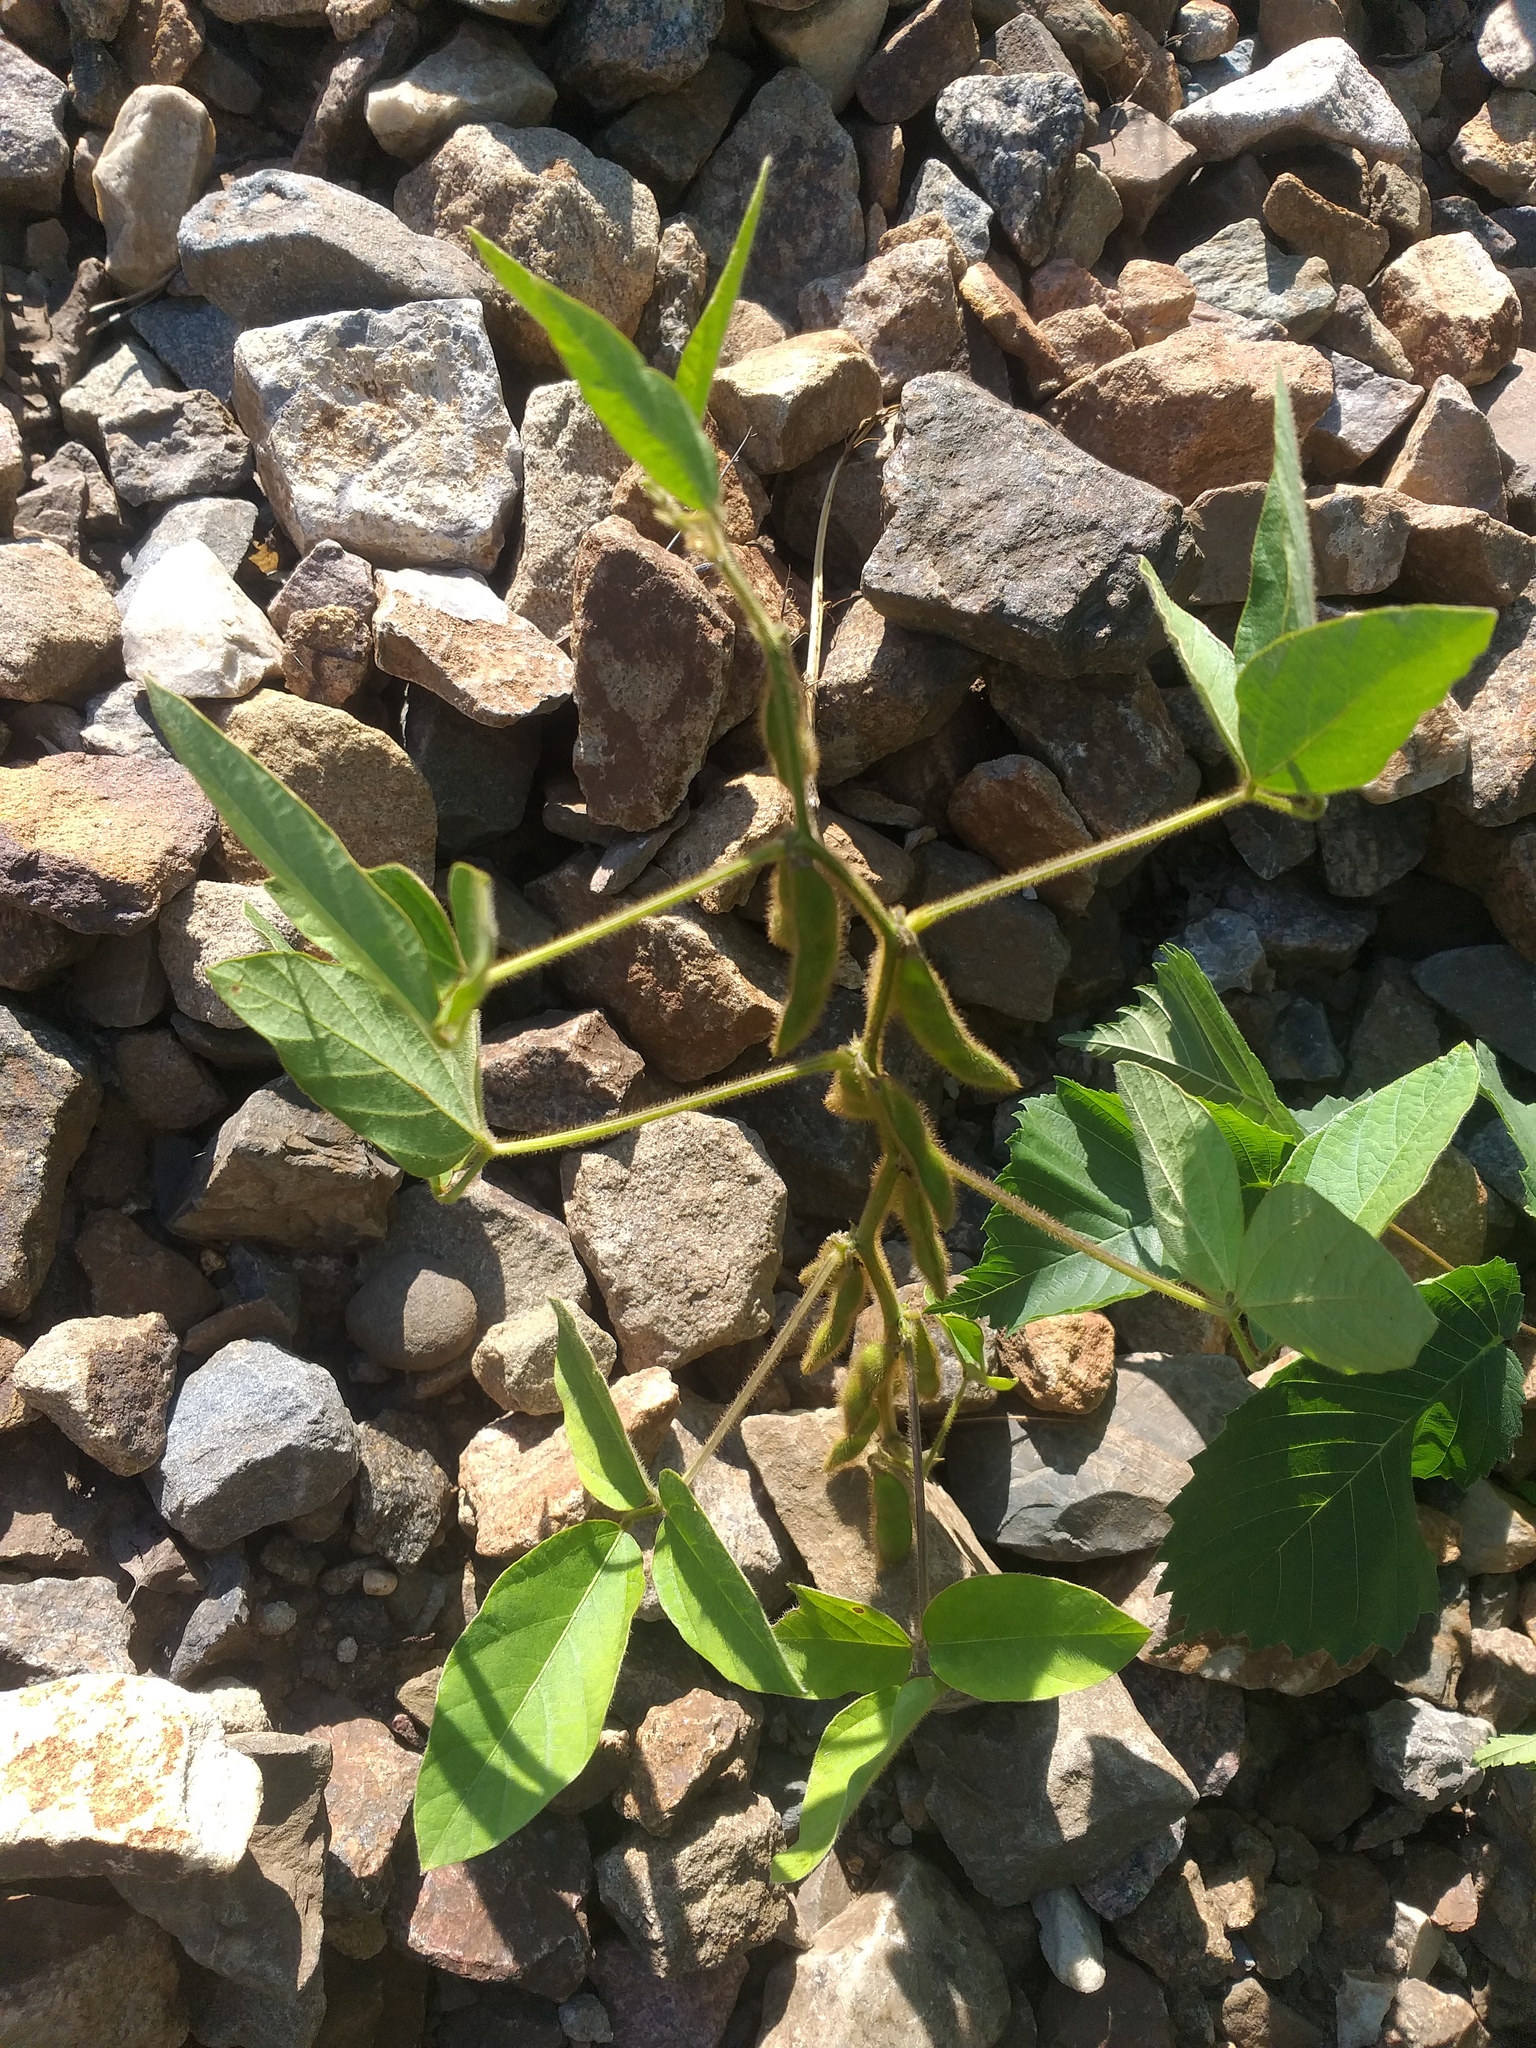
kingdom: Plantae
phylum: Tracheophyta
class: Magnoliopsida
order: Fabales
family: Fabaceae
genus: Glycine
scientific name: Glycine max
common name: Soya-bean
